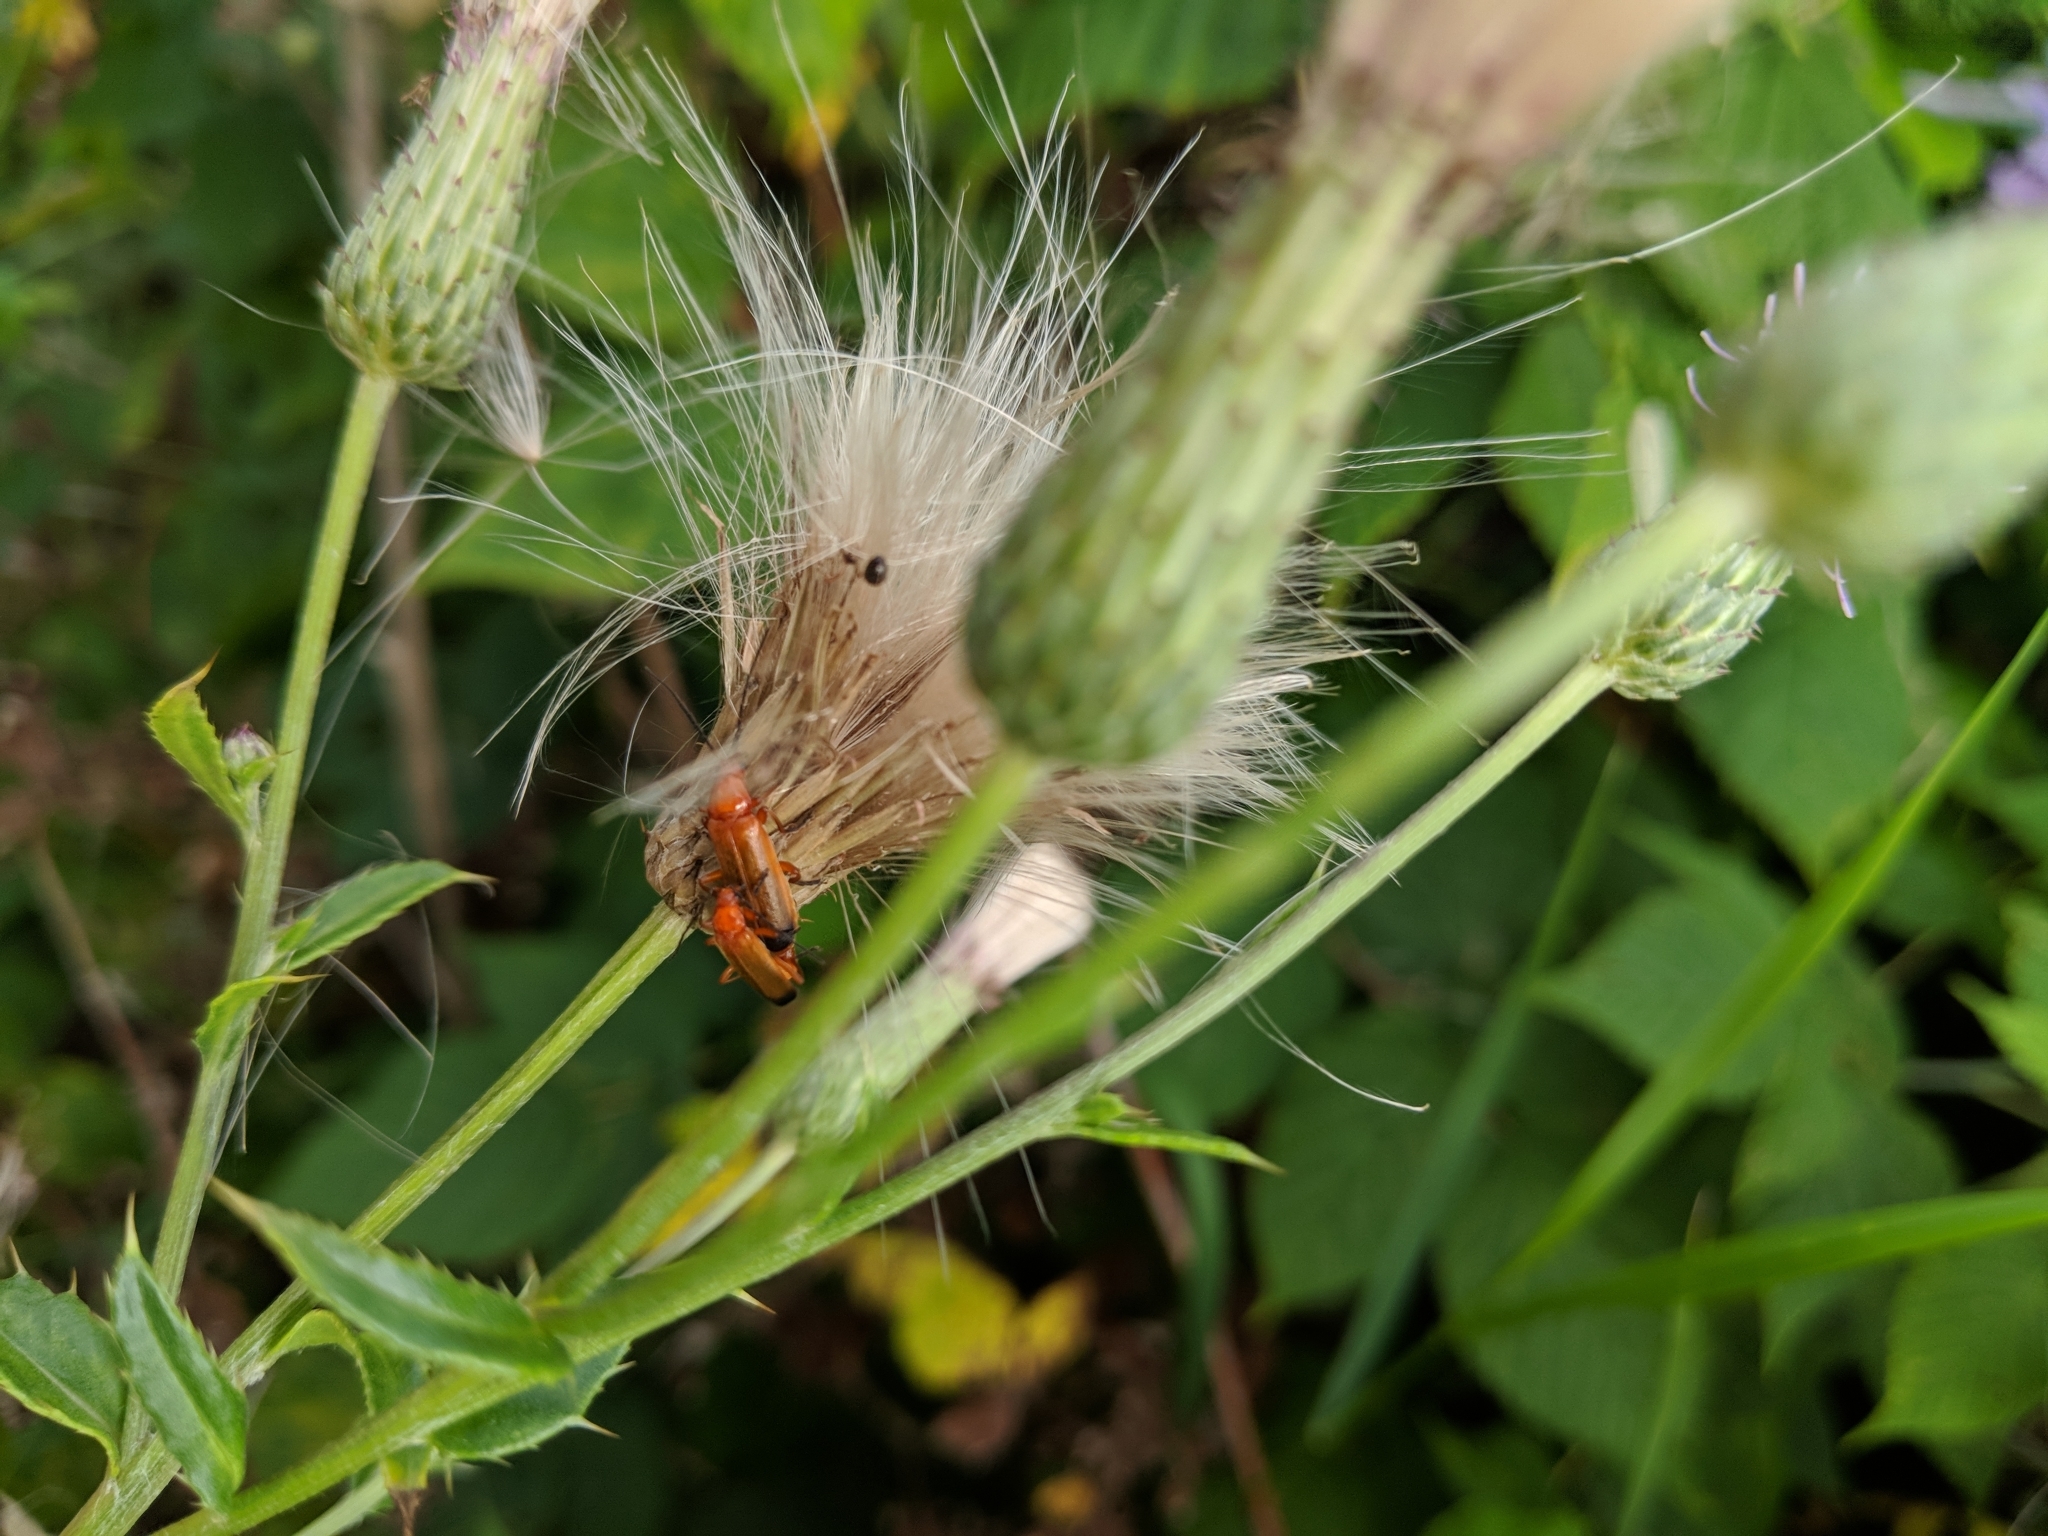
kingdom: Animalia
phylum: Arthropoda
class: Insecta
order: Coleoptera
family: Cantharidae
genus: Rhagonycha
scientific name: Rhagonycha fulva
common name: Common red soldier beetle
